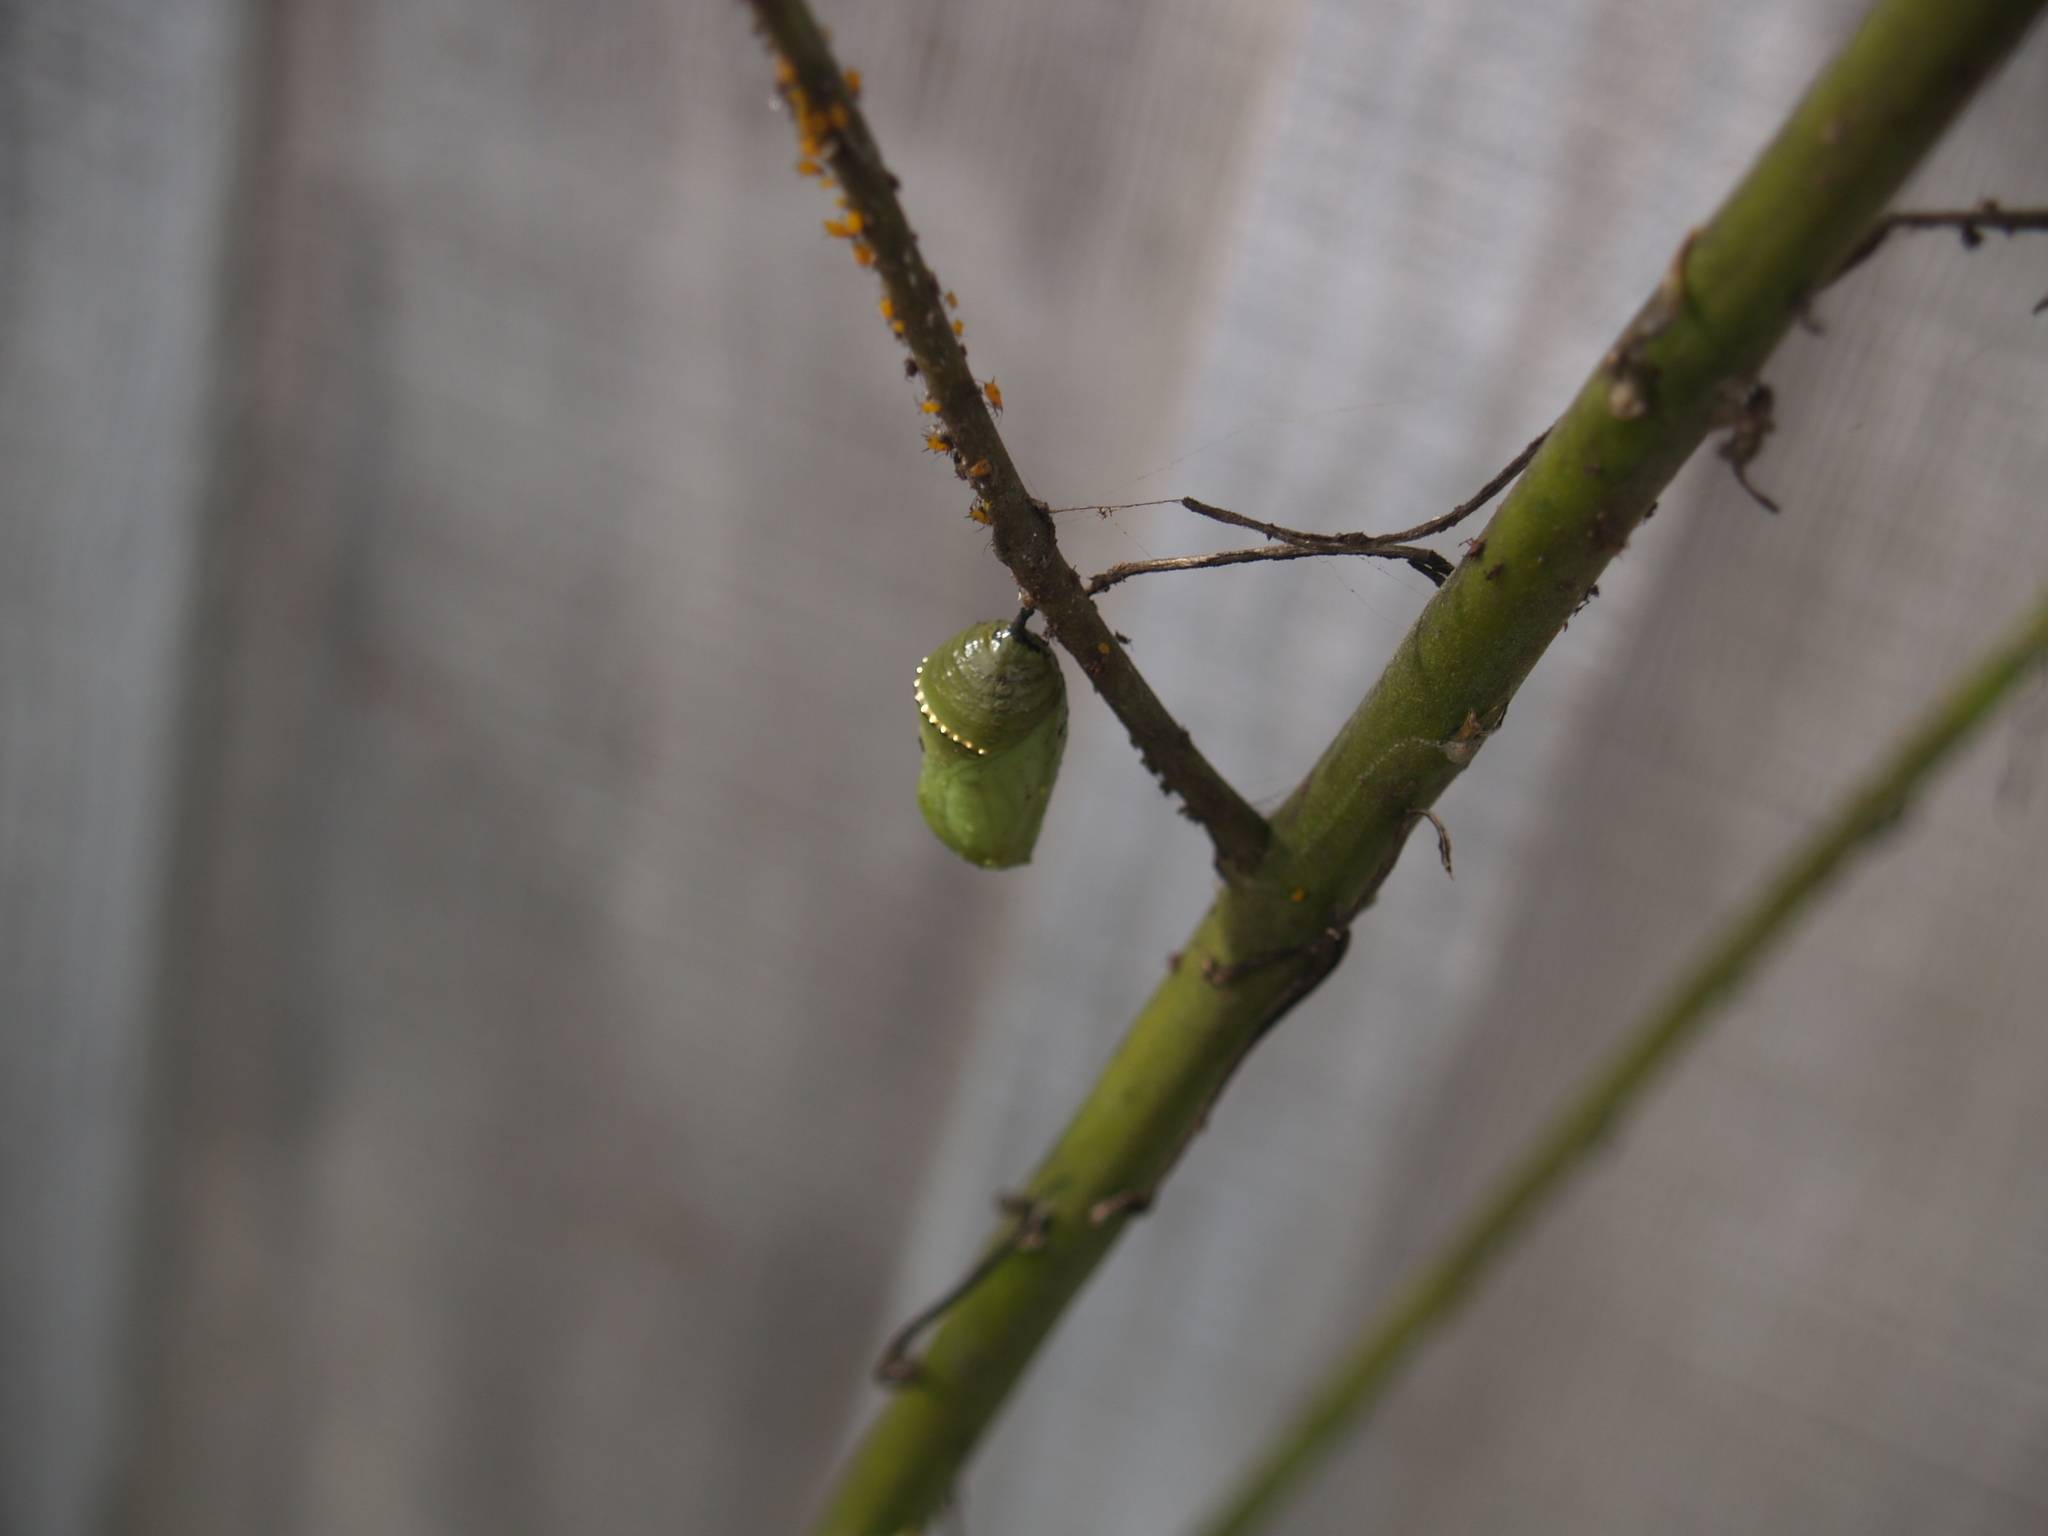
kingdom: Animalia
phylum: Arthropoda
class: Insecta
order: Lepidoptera
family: Nymphalidae
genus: Danaus
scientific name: Danaus plexippus
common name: Monarch
